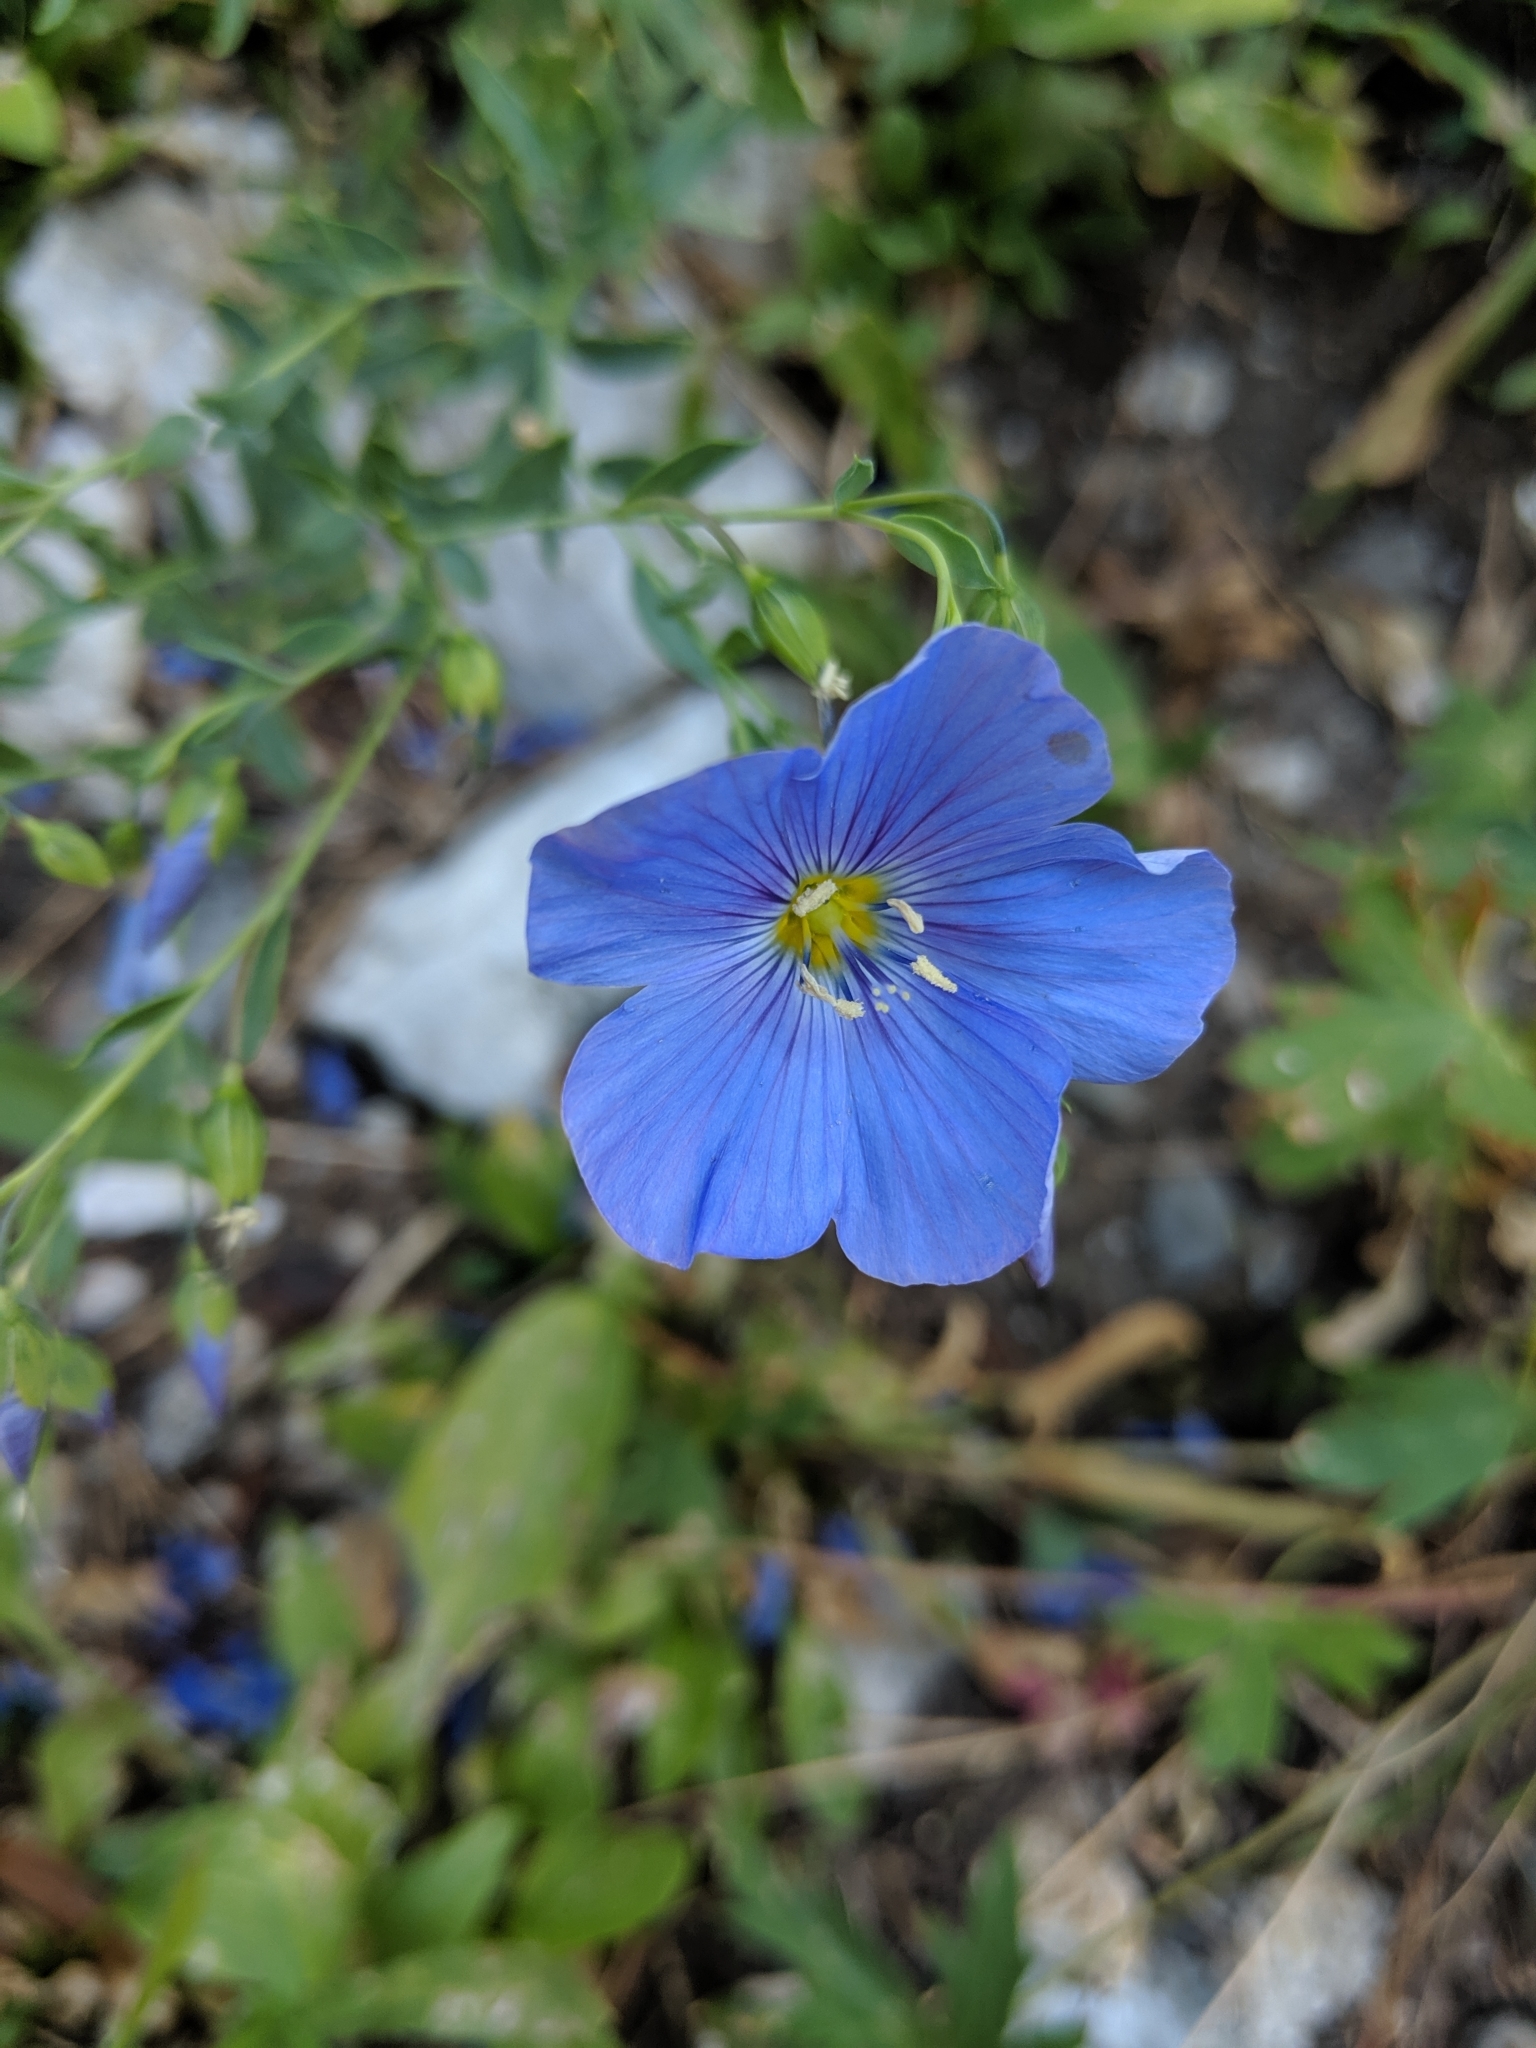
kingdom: Plantae
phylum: Tracheophyta
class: Magnoliopsida
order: Malpighiales
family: Linaceae
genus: Linum
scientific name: Linum lewisii
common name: Prairie flax
